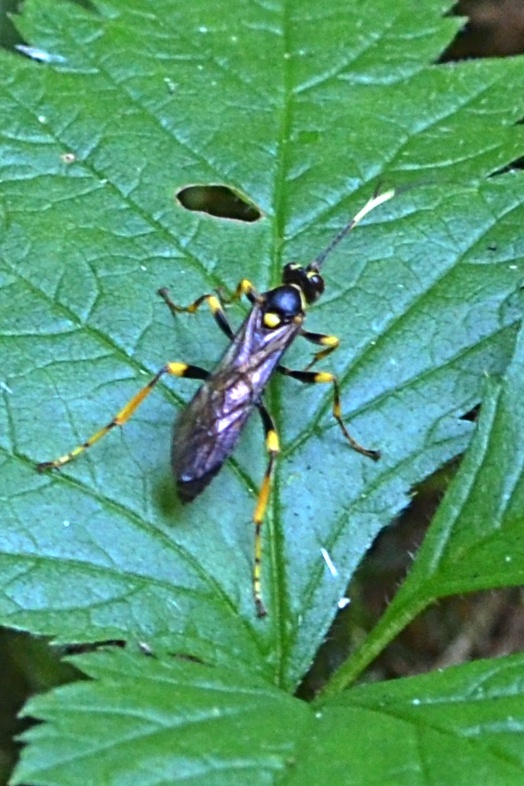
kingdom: Animalia
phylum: Arthropoda
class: Insecta
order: Hymenoptera
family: Ichneumonidae
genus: Hepiopelmus
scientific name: Hepiopelmus variegatorius
